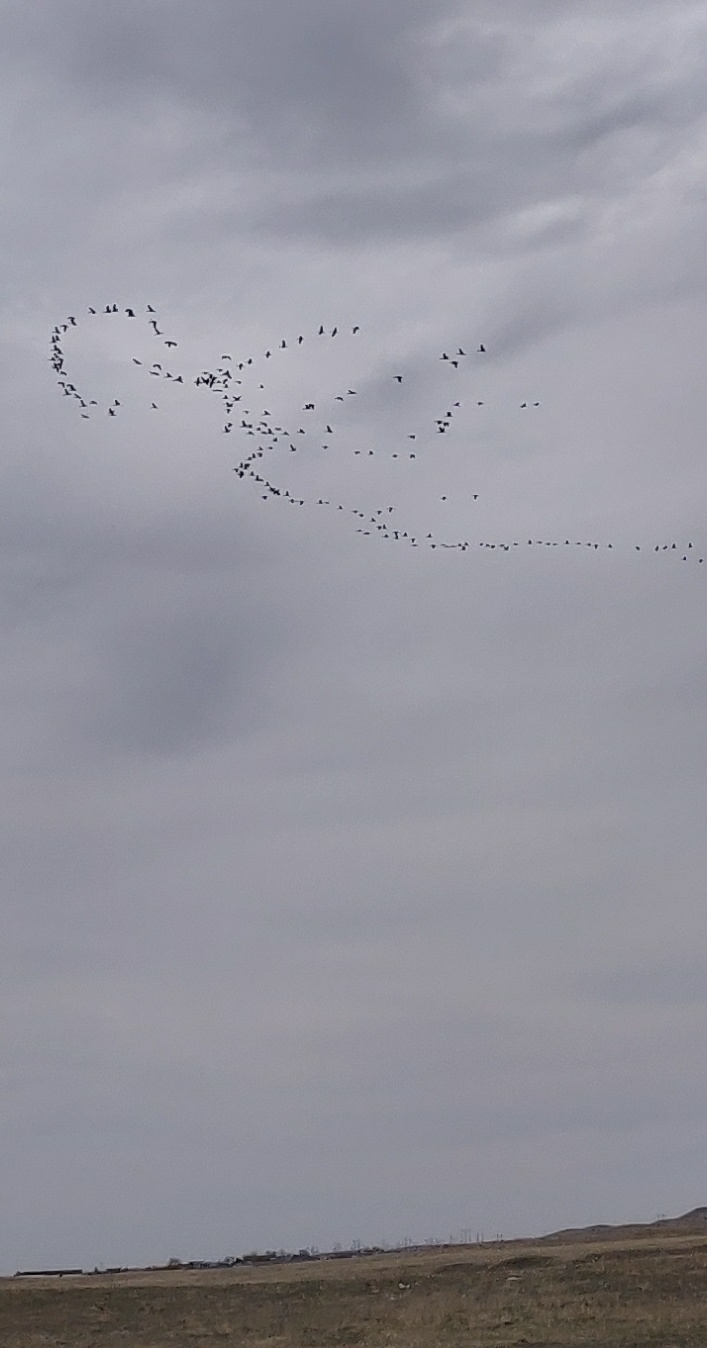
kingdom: Animalia
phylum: Chordata
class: Aves
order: Gruiformes
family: Gruidae
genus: Grus
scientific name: Grus canadensis
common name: Sandhill crane
